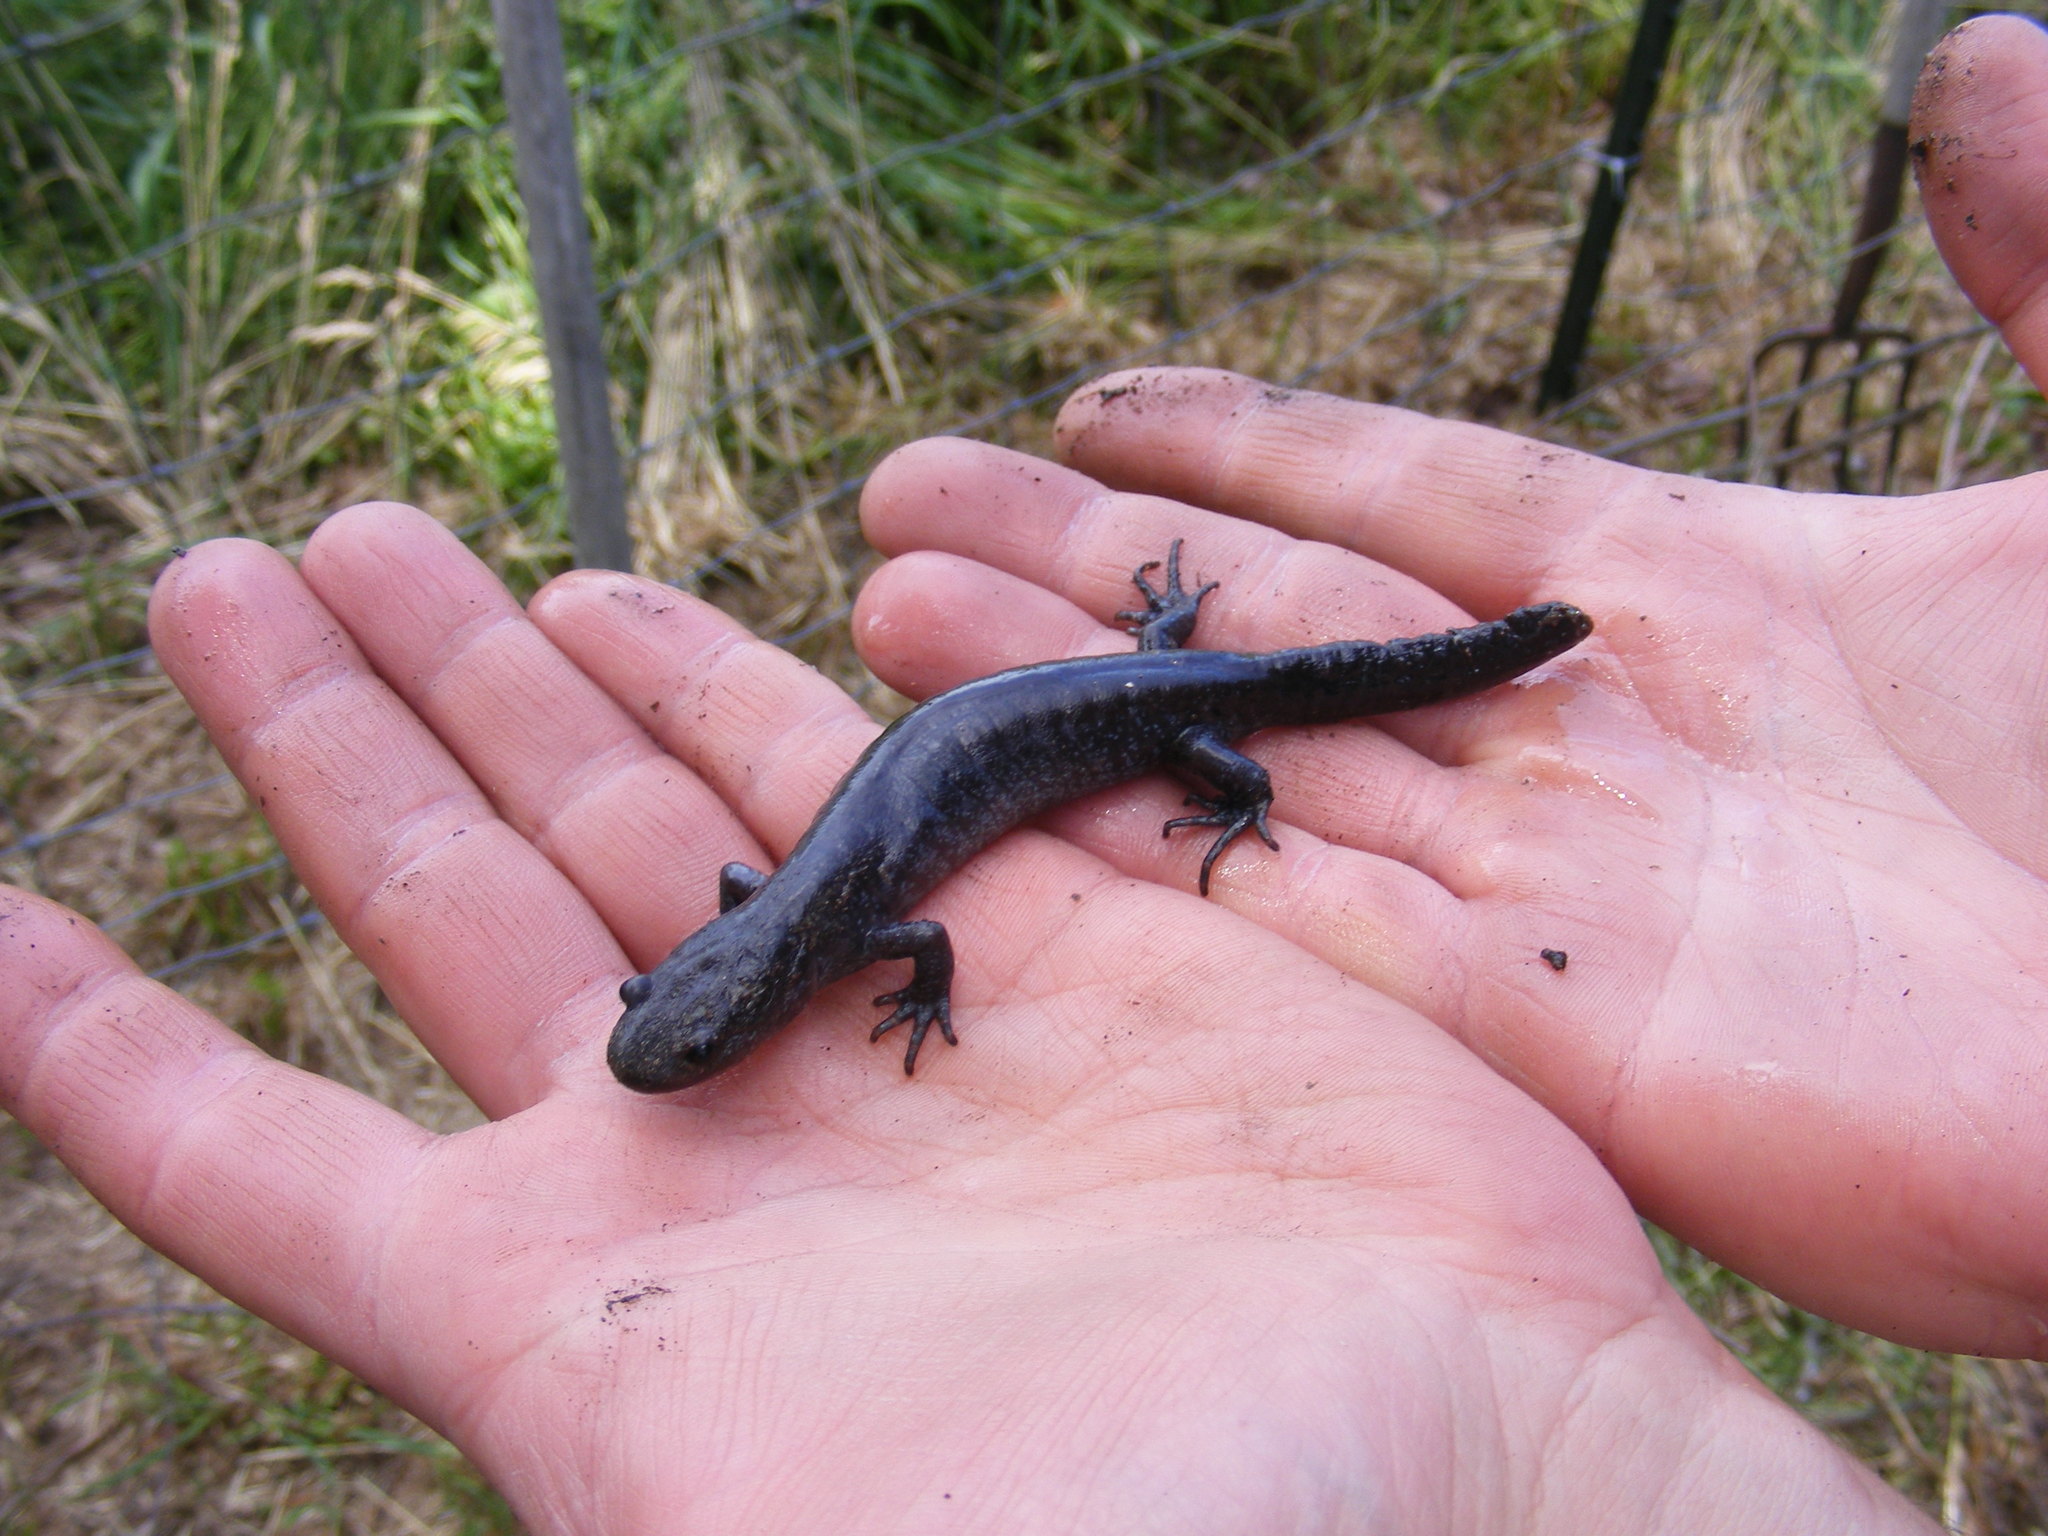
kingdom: Animalia
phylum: Chordata
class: Amphibia
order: Caudata
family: Ambystomatidae
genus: Ambystoma
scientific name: Ambystoma jeffersonianum
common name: Jefferson salamander
